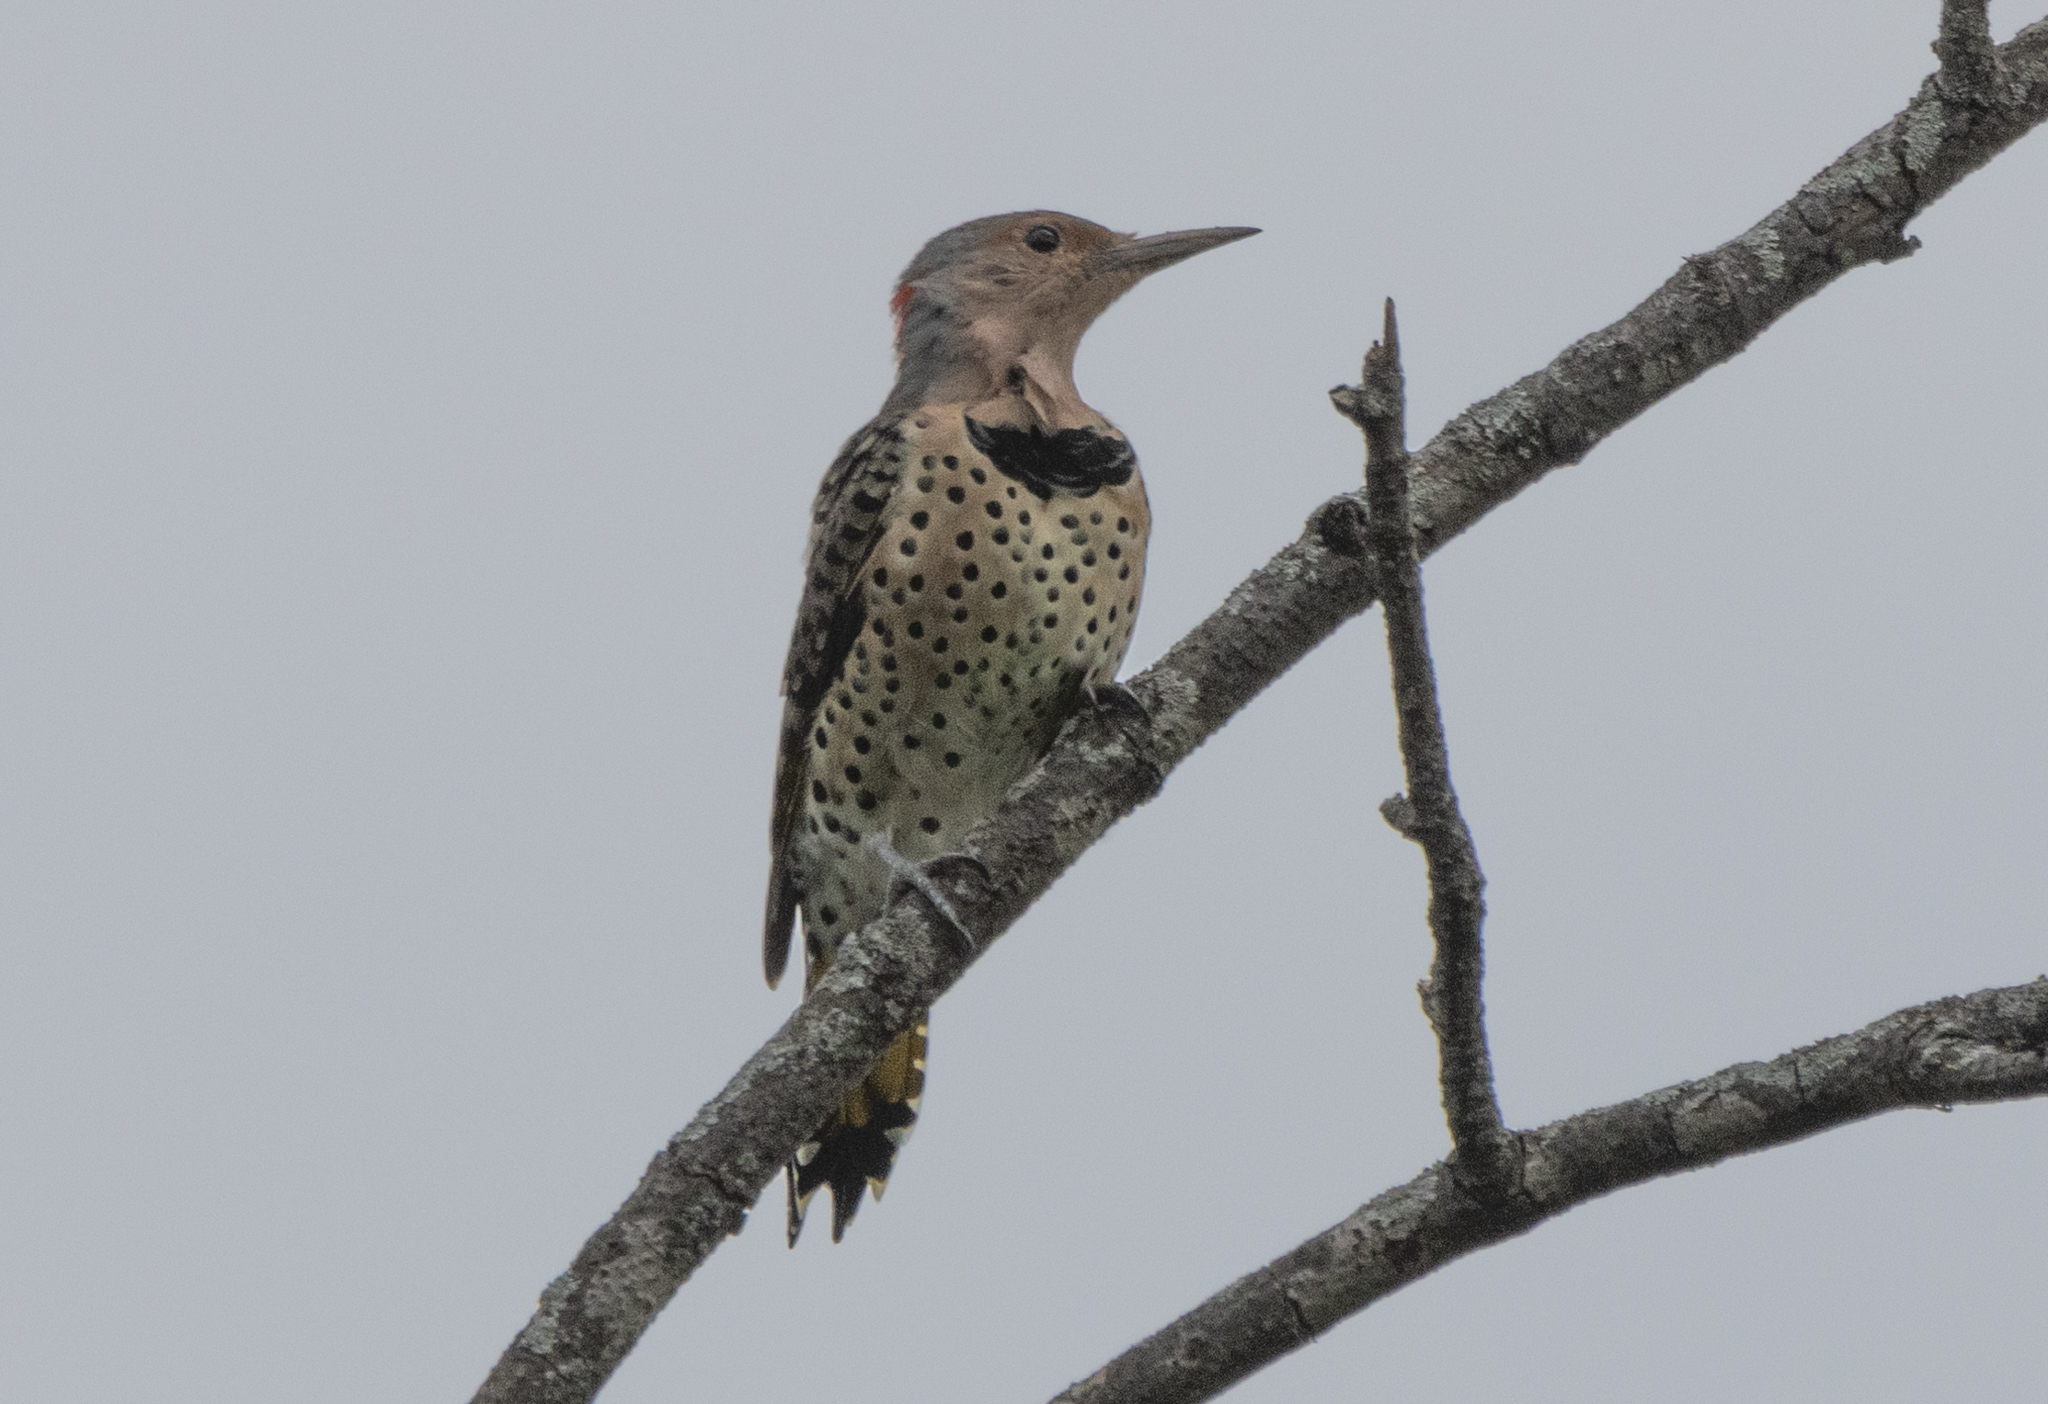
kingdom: Animalia
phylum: Chordata
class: Aves
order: Piciformes
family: Picidae
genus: Colaptes
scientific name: Colaptes auratus
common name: Northern flicker
